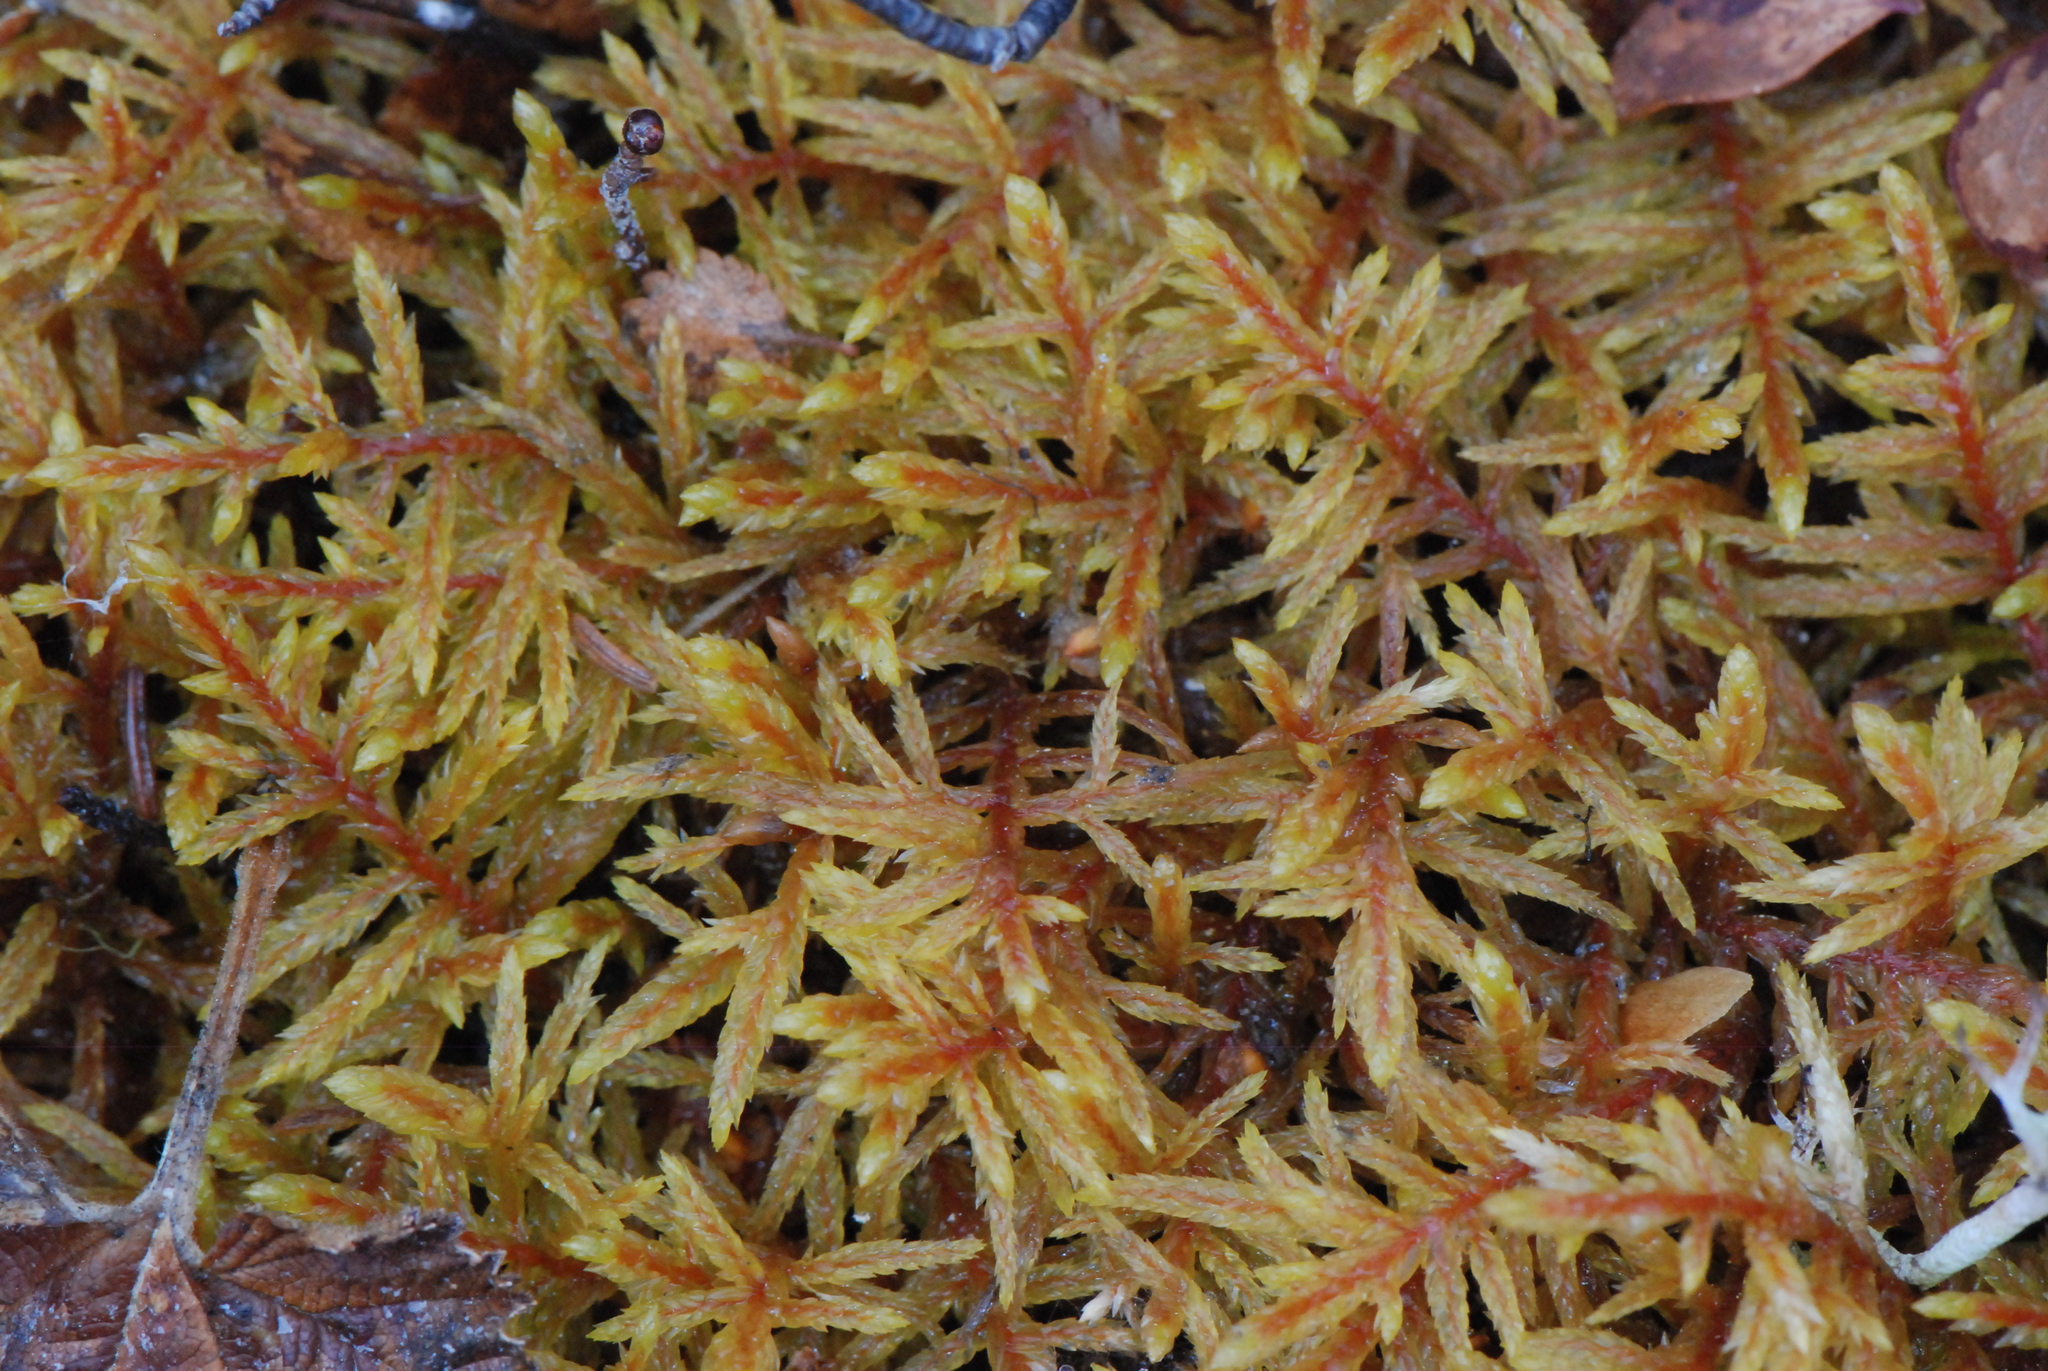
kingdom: Plantae
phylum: Bryophyta
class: Bryopsida
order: Hypnales
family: Hylocomiaceae
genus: Pleurozium
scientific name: Pleurozium schreberi
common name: Red-stemmed feather moss
